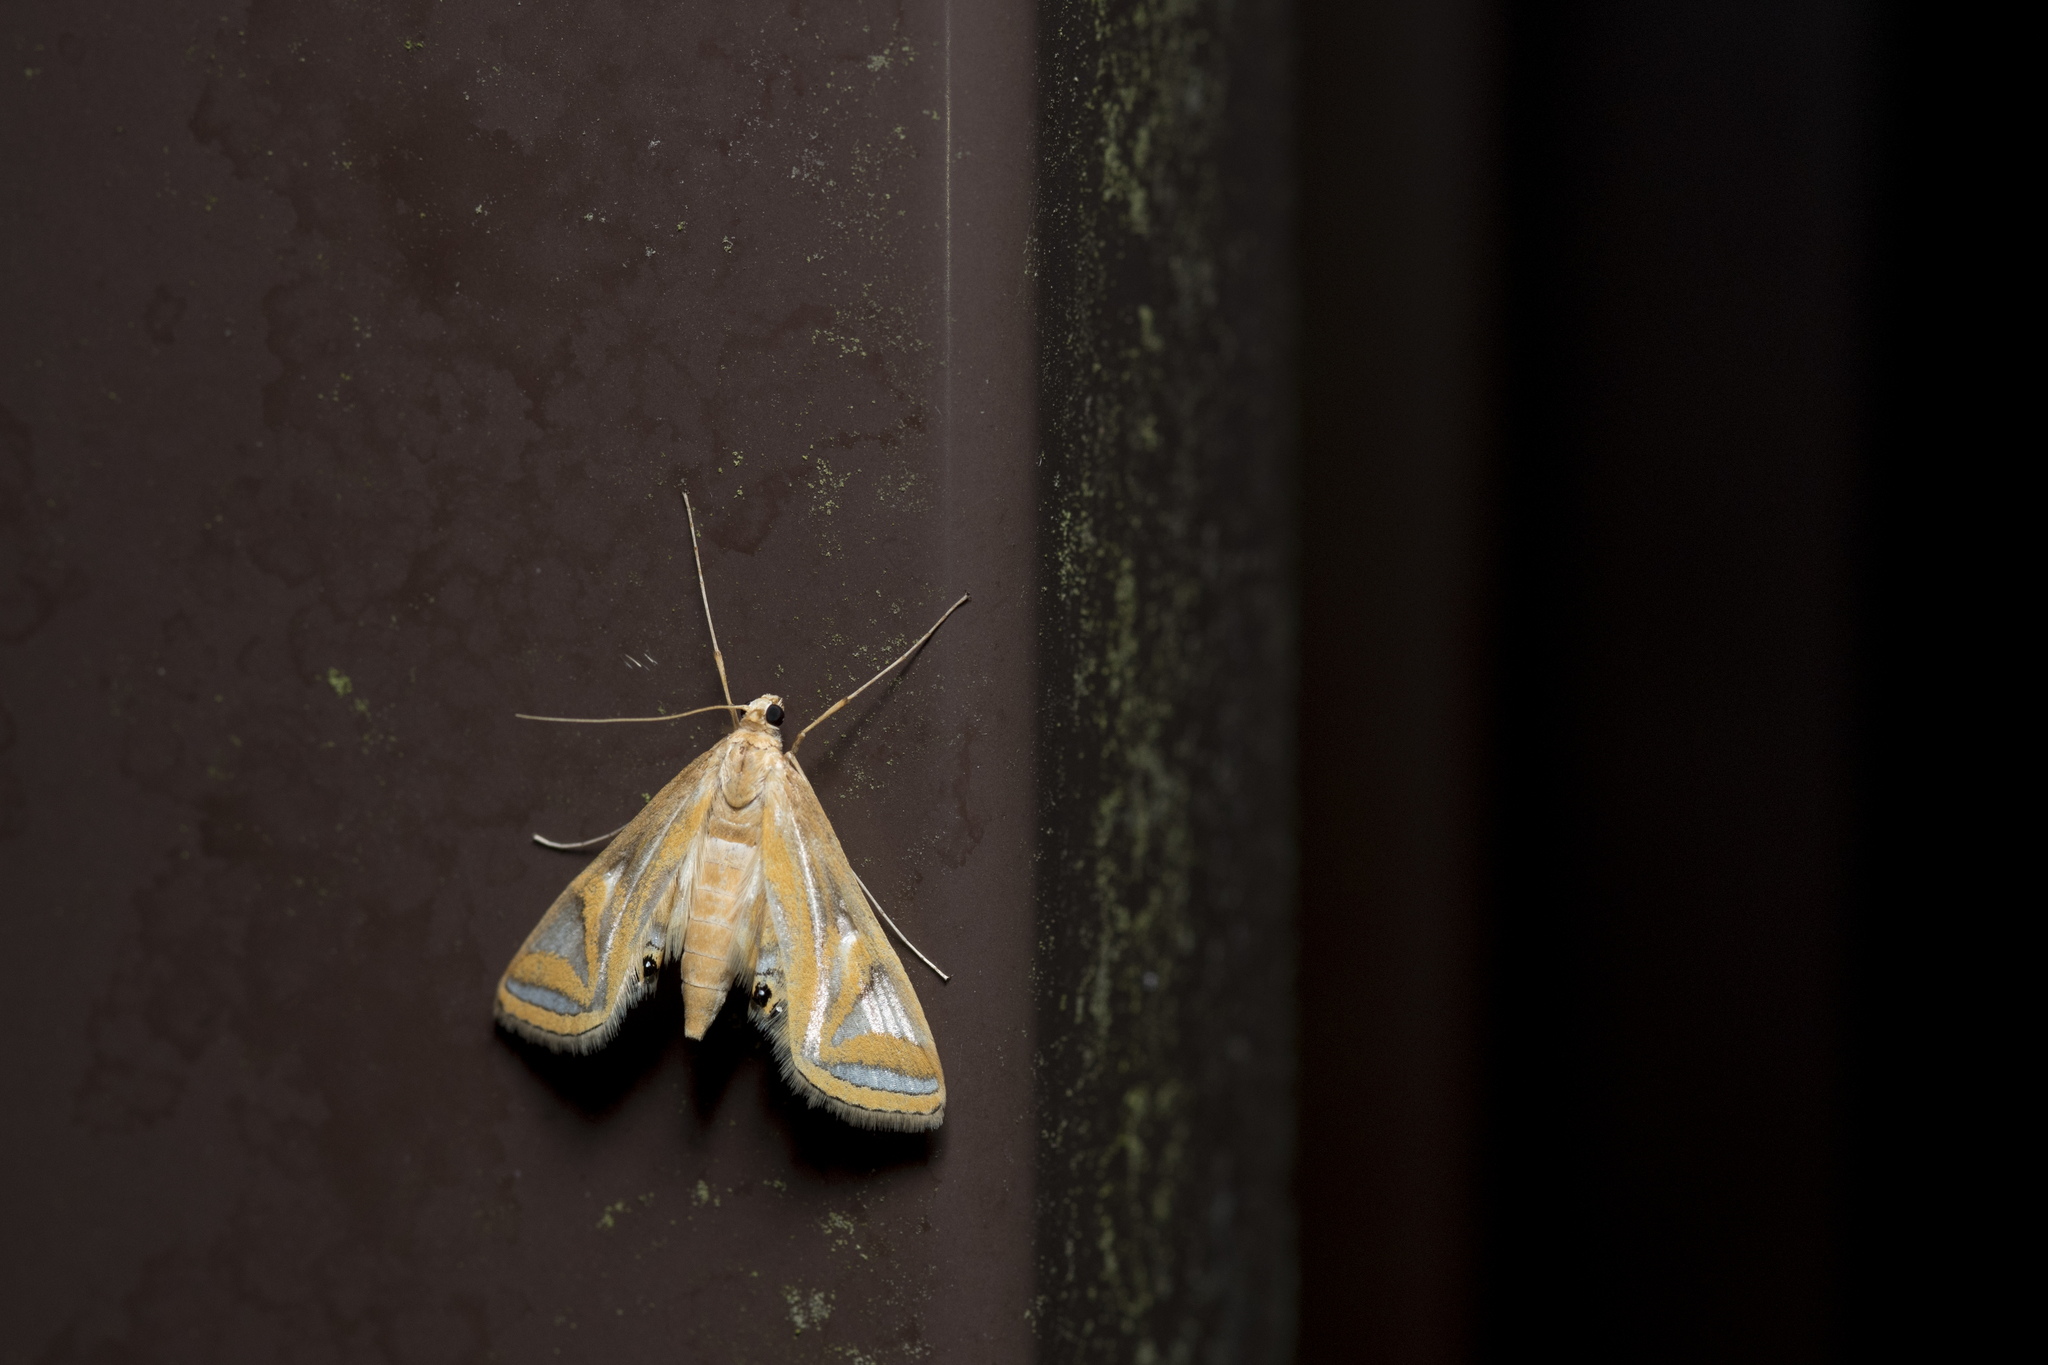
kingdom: Animalia
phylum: Arthropoda
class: Insecta
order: Lepidoptera
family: Crambidae
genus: Eoophyla
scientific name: Eoophyla conjunctalis
